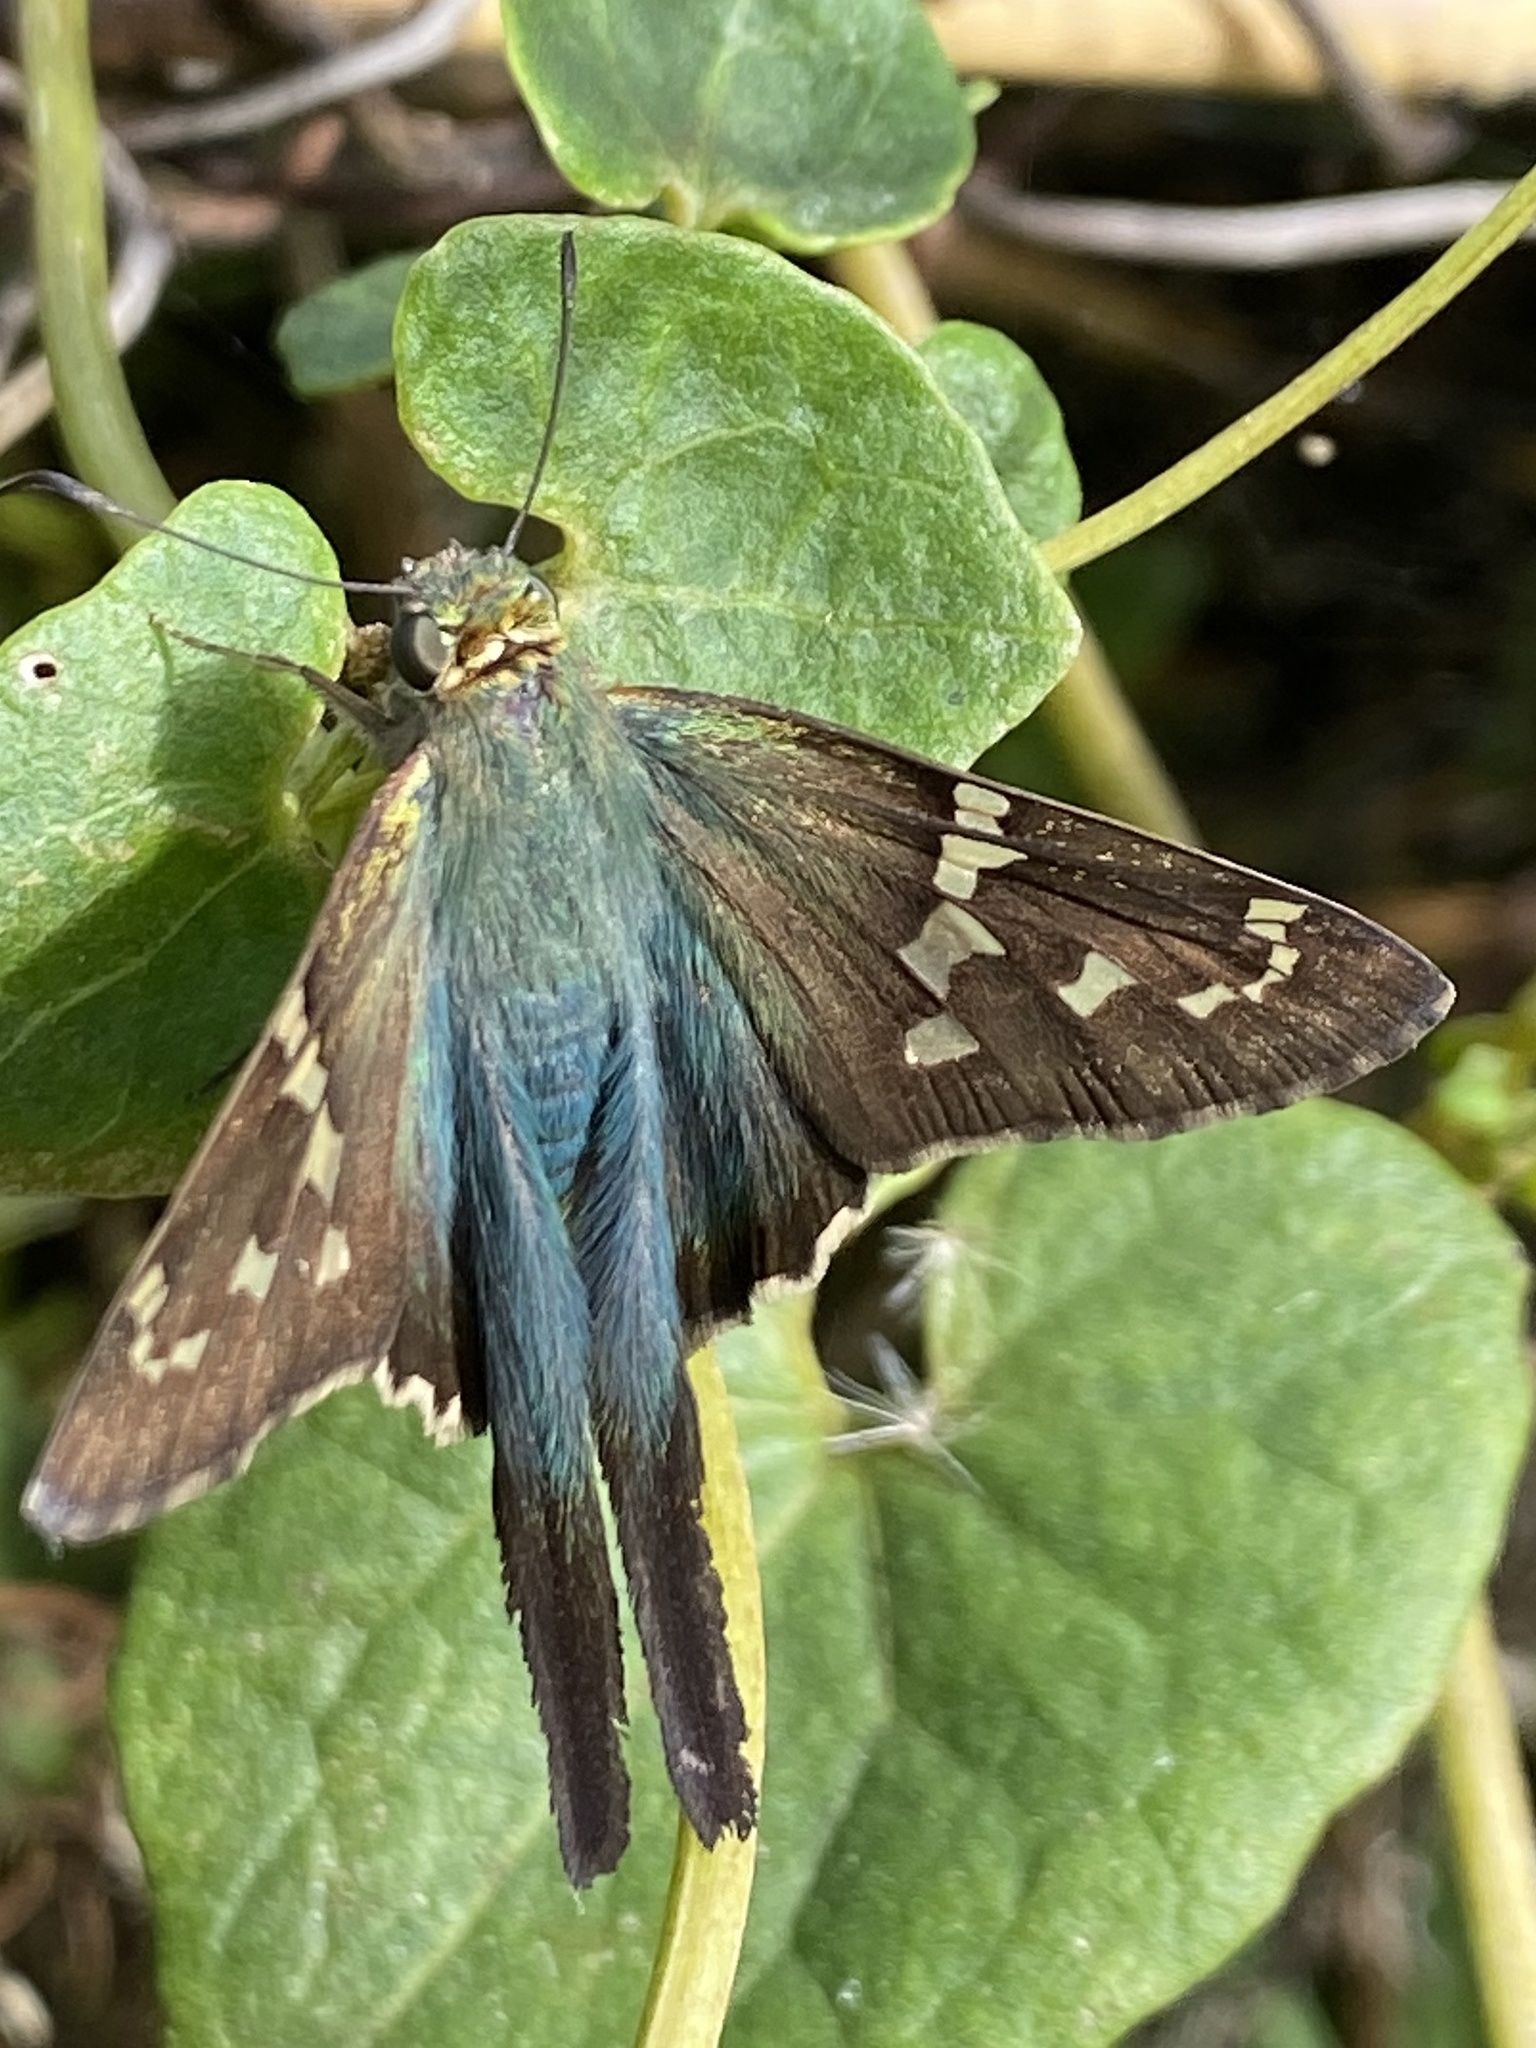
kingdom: Animalia
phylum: Arthropoda
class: Insecta
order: Lepidoptera
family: Hesperiidae
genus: Urbanus
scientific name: Urbanus proteus
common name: Long-tailed skipper
